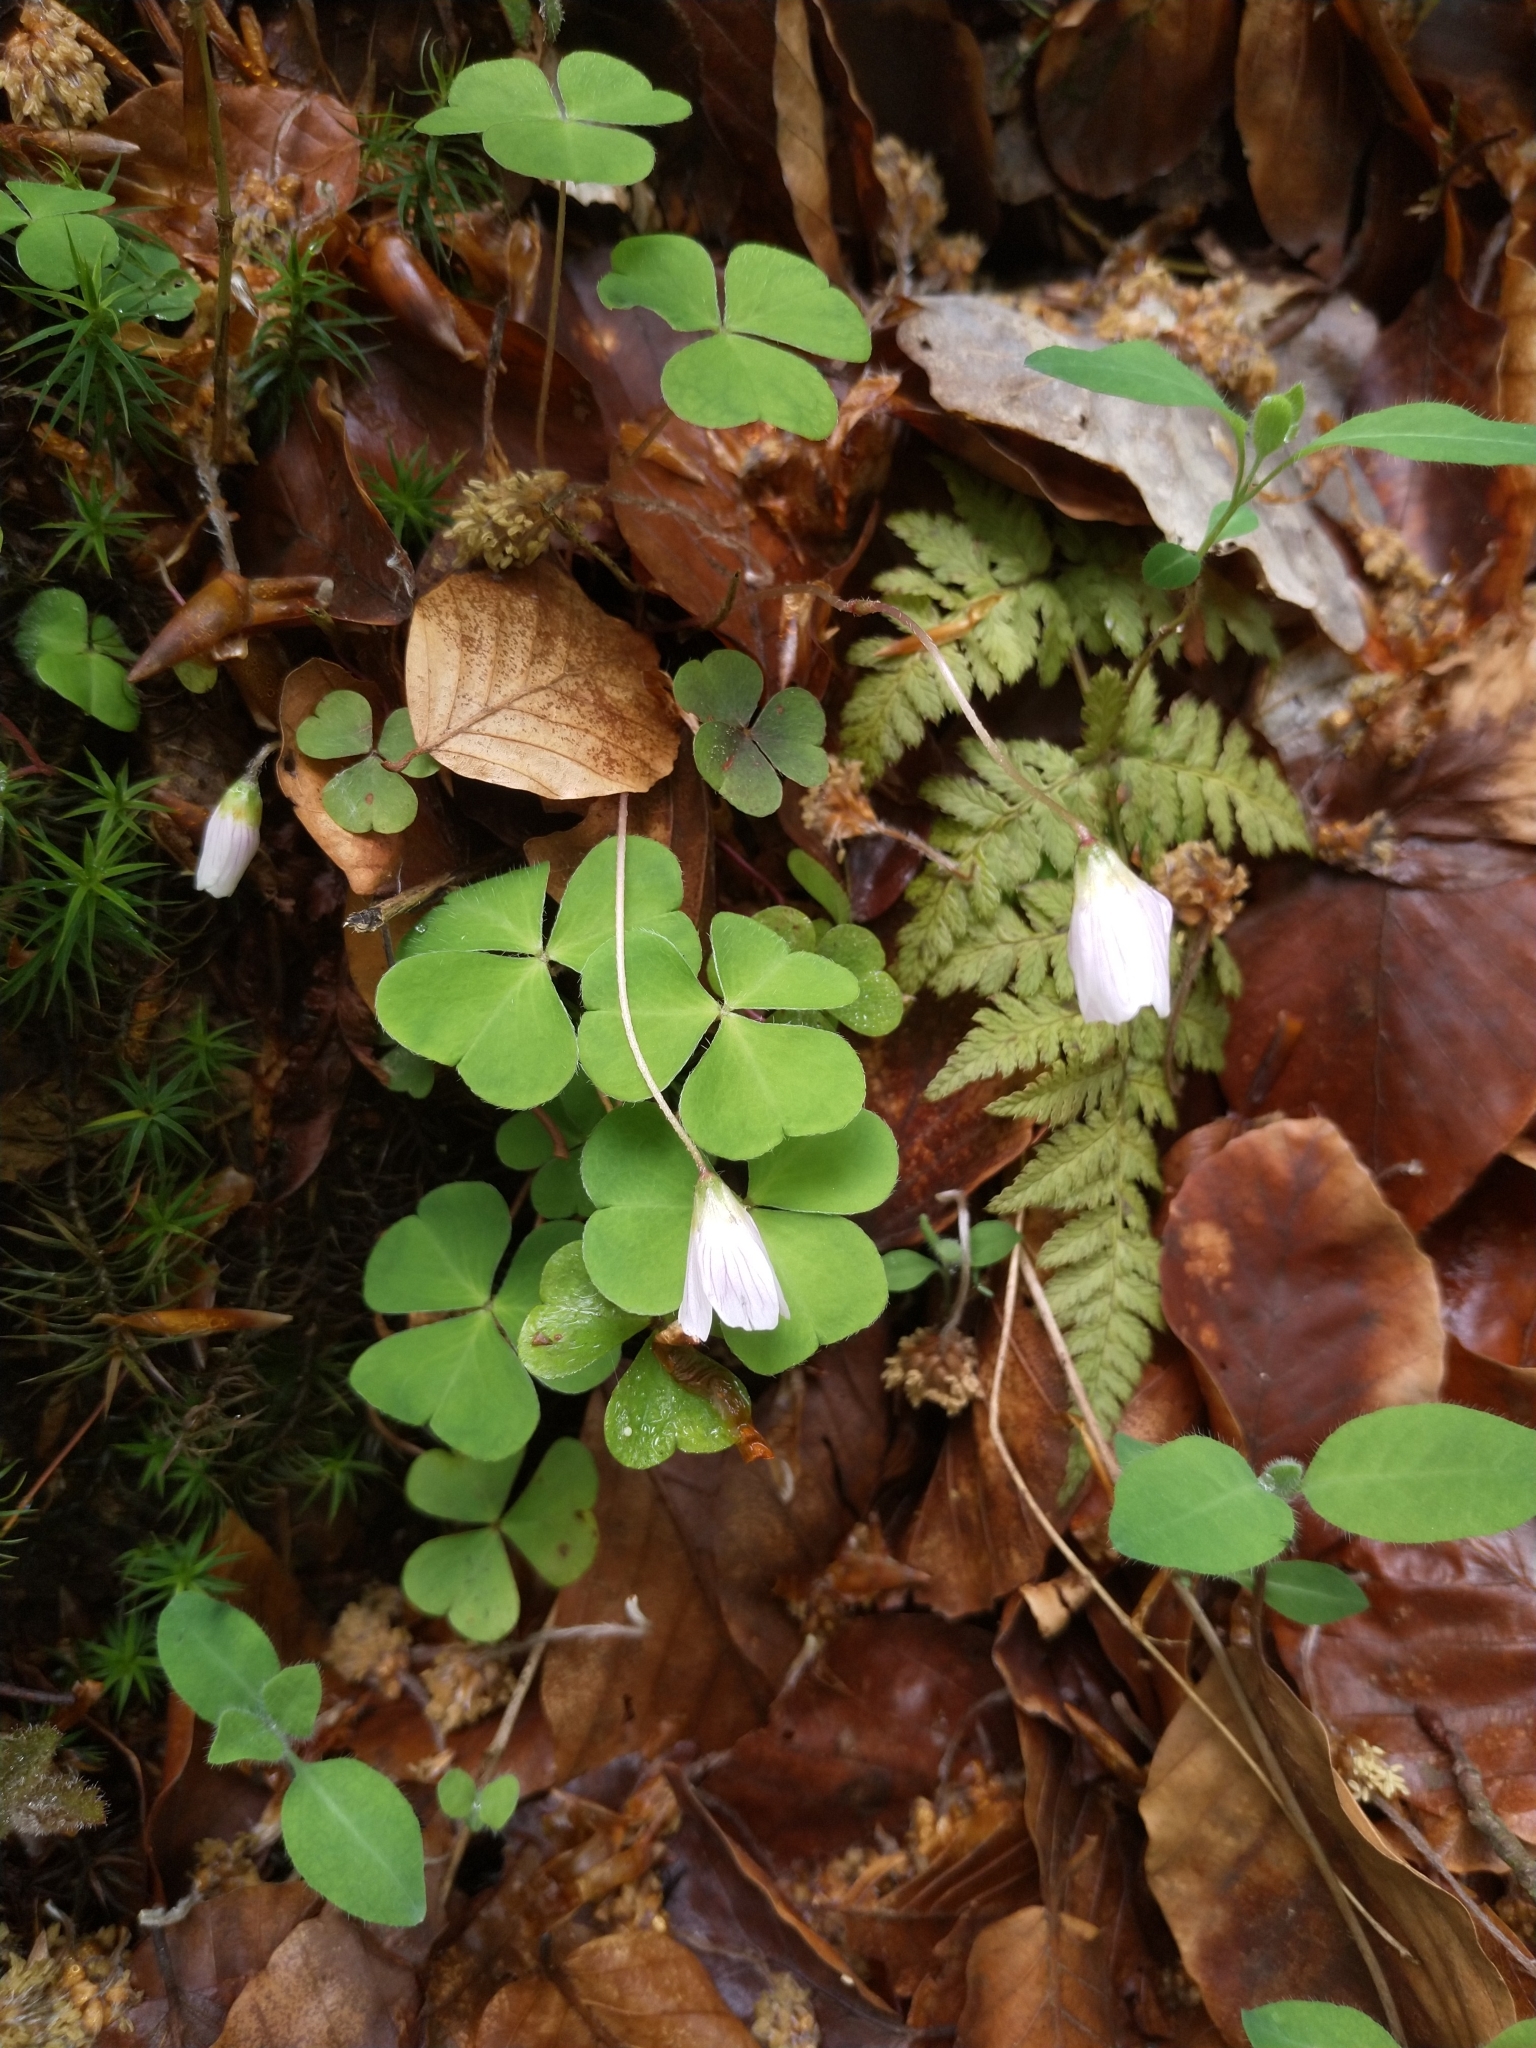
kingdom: Plantae
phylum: Tracheophyta
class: Magnoliopsida
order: Oxalidales
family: Oxalidaceae
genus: Oxalis
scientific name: Oxalis acetosella
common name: Wood-sorrel
